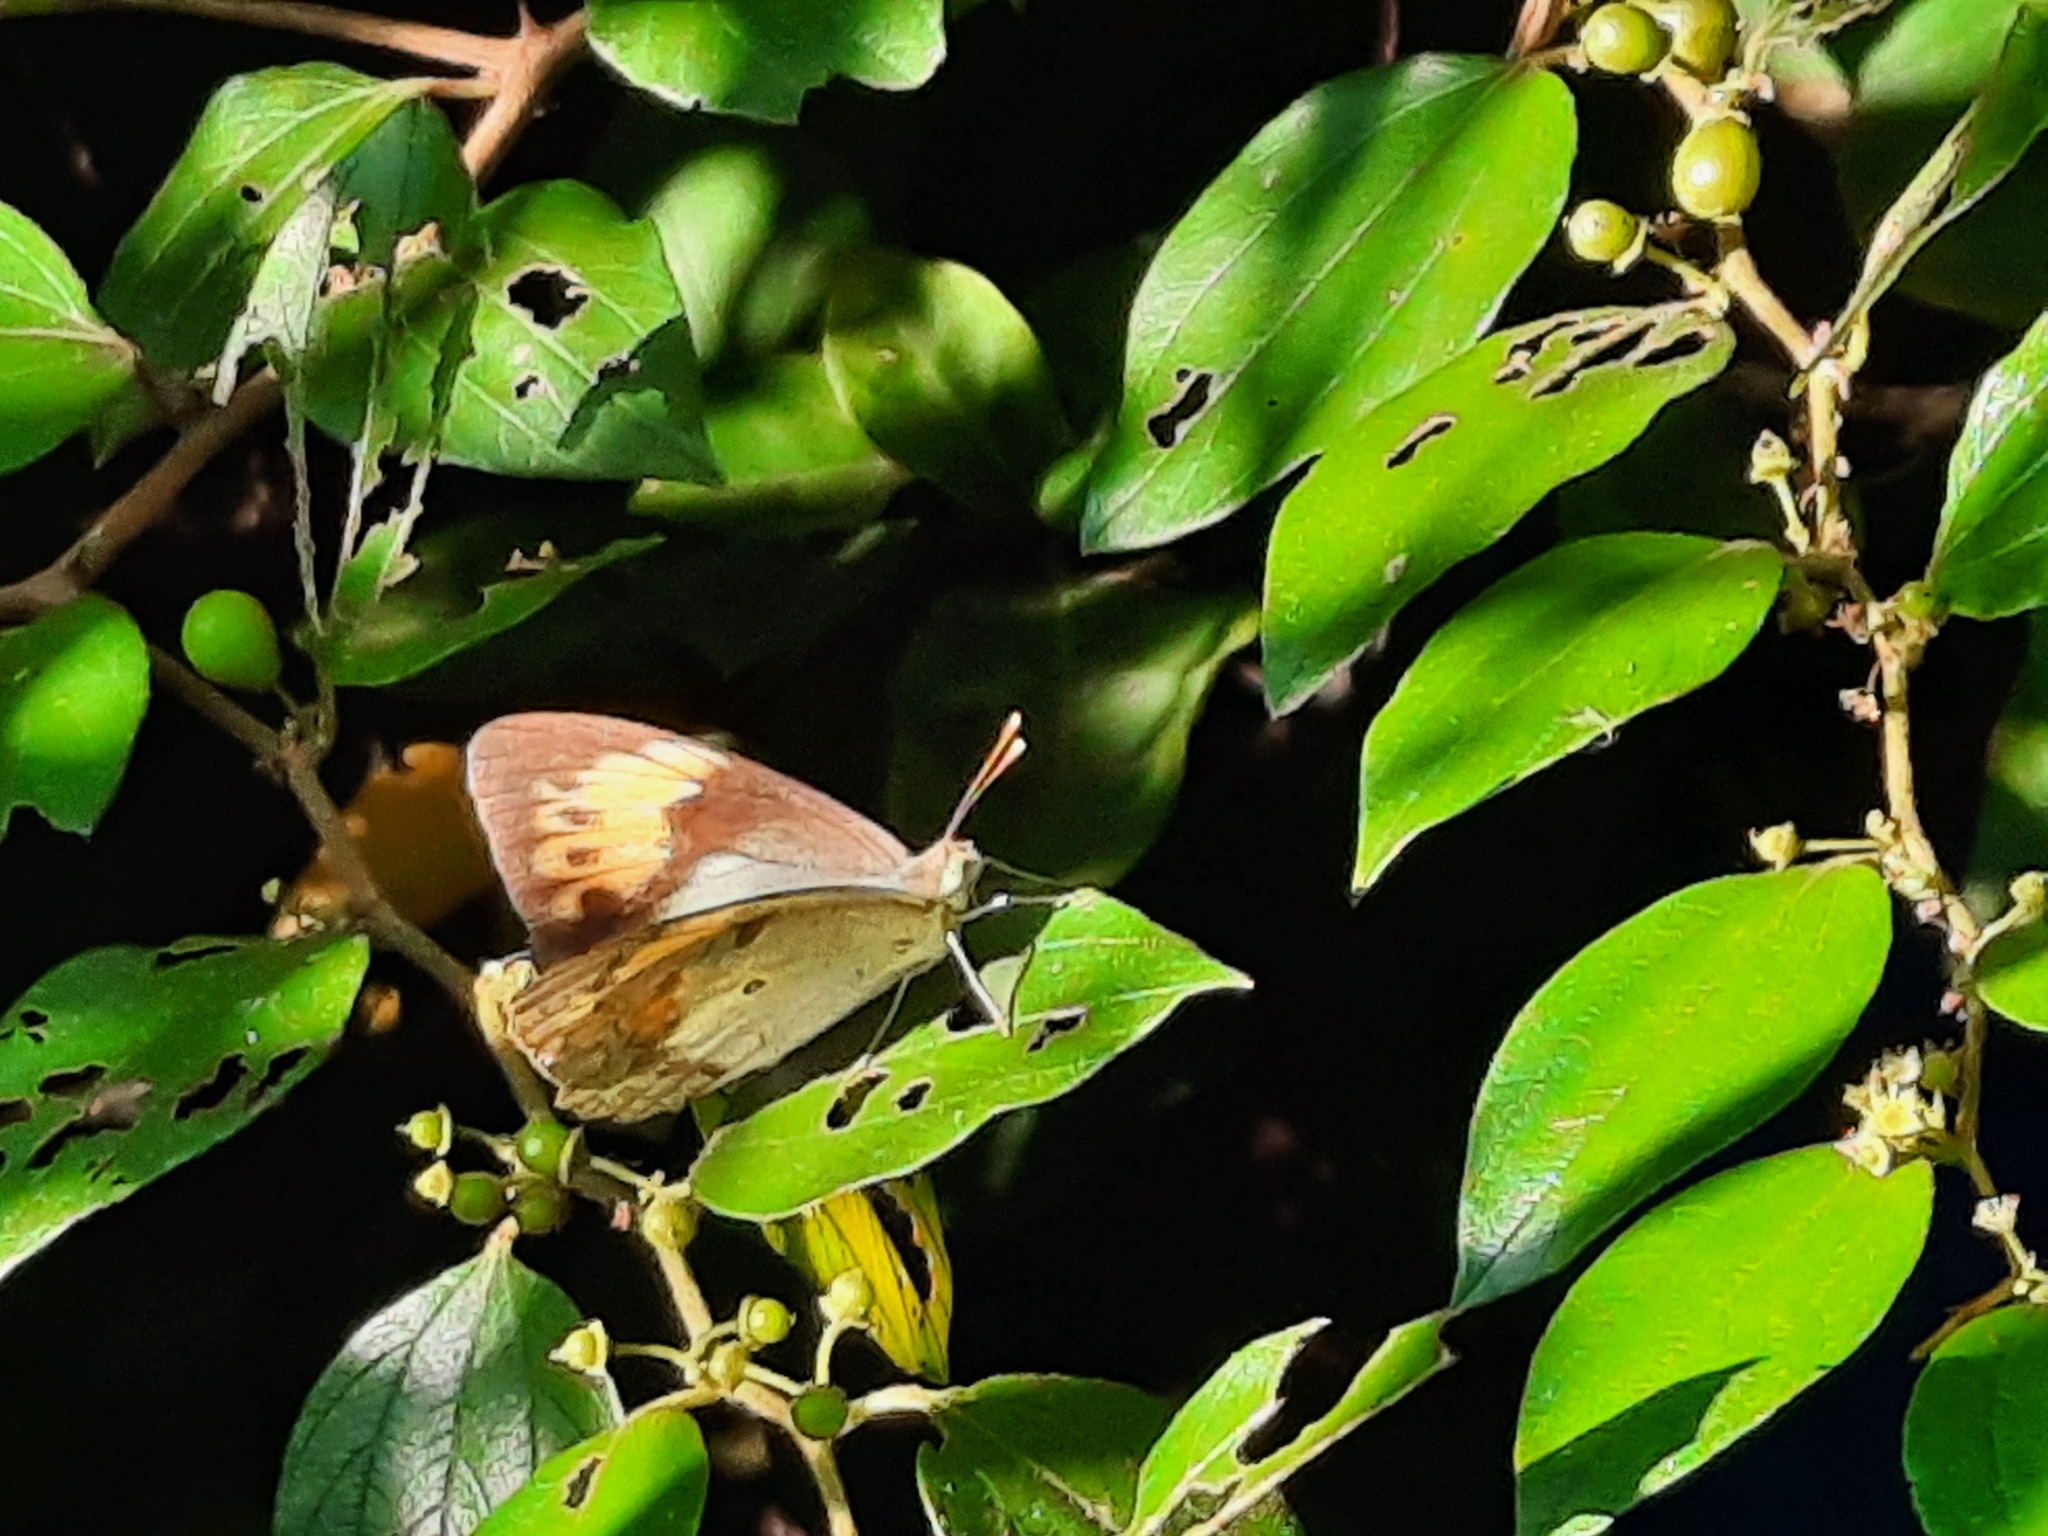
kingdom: Animalia
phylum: Arthropoda
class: Insecta
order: Lepidoptera
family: Pieridae
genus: Ixias
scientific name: Ixias marianne
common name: White orange tip
